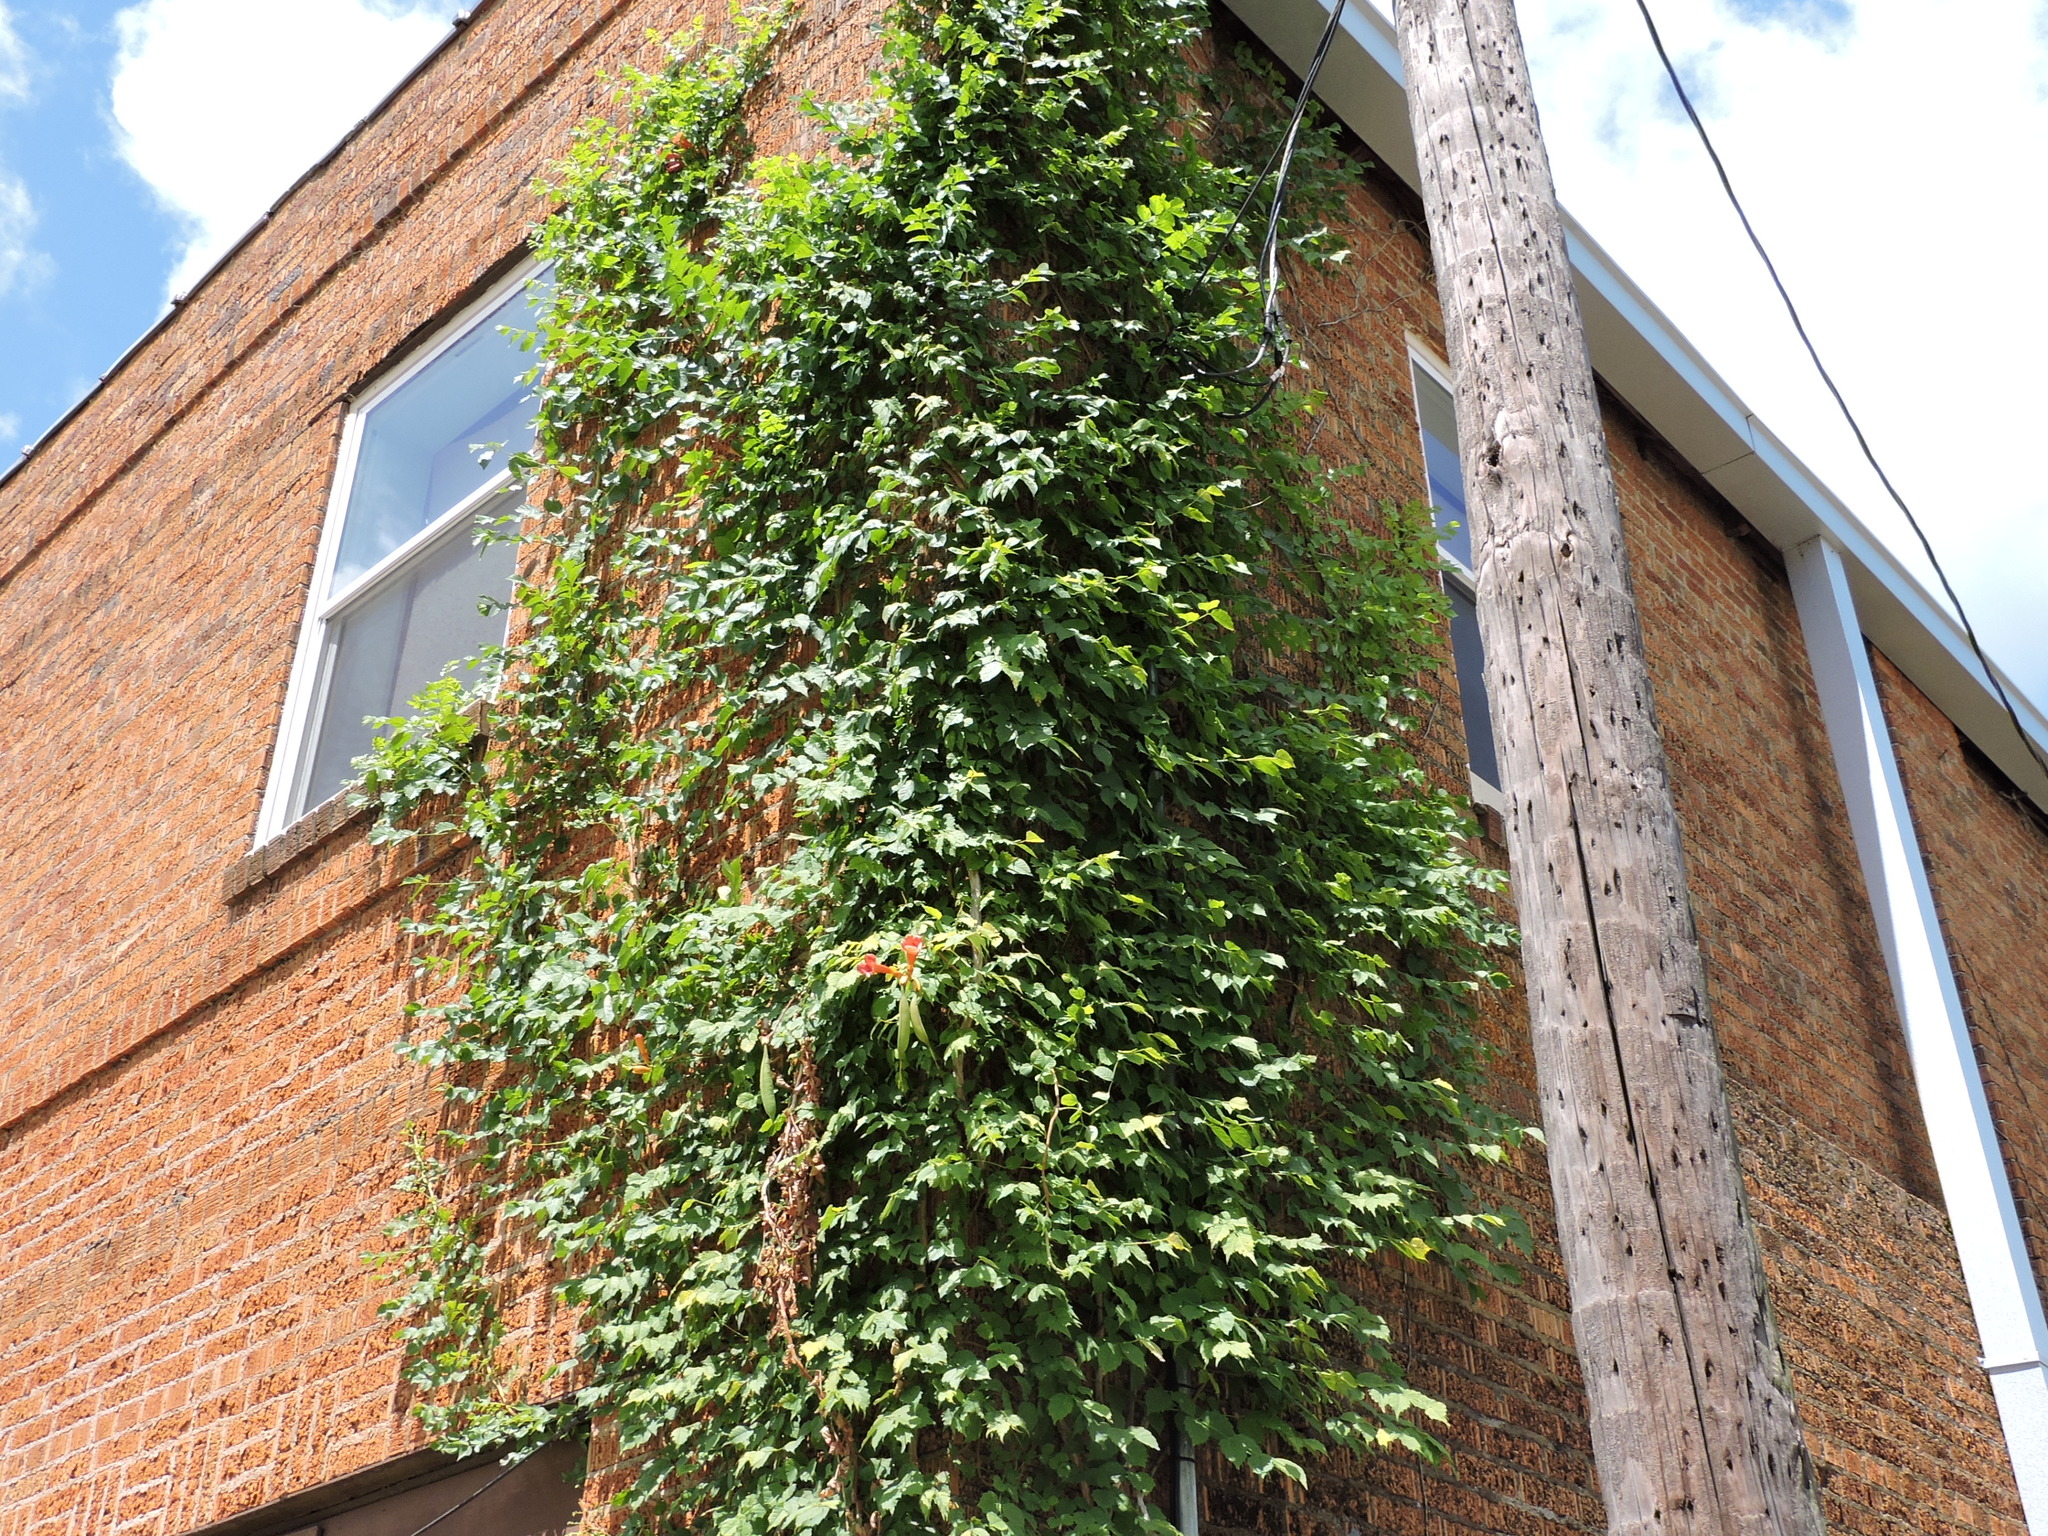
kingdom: Plantae
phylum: Tracheophyta
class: Magnoliopsida
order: Lamiales
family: Bignoniaceae
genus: Campsis
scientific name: Campsis radicans
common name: Trumpet-creeper
